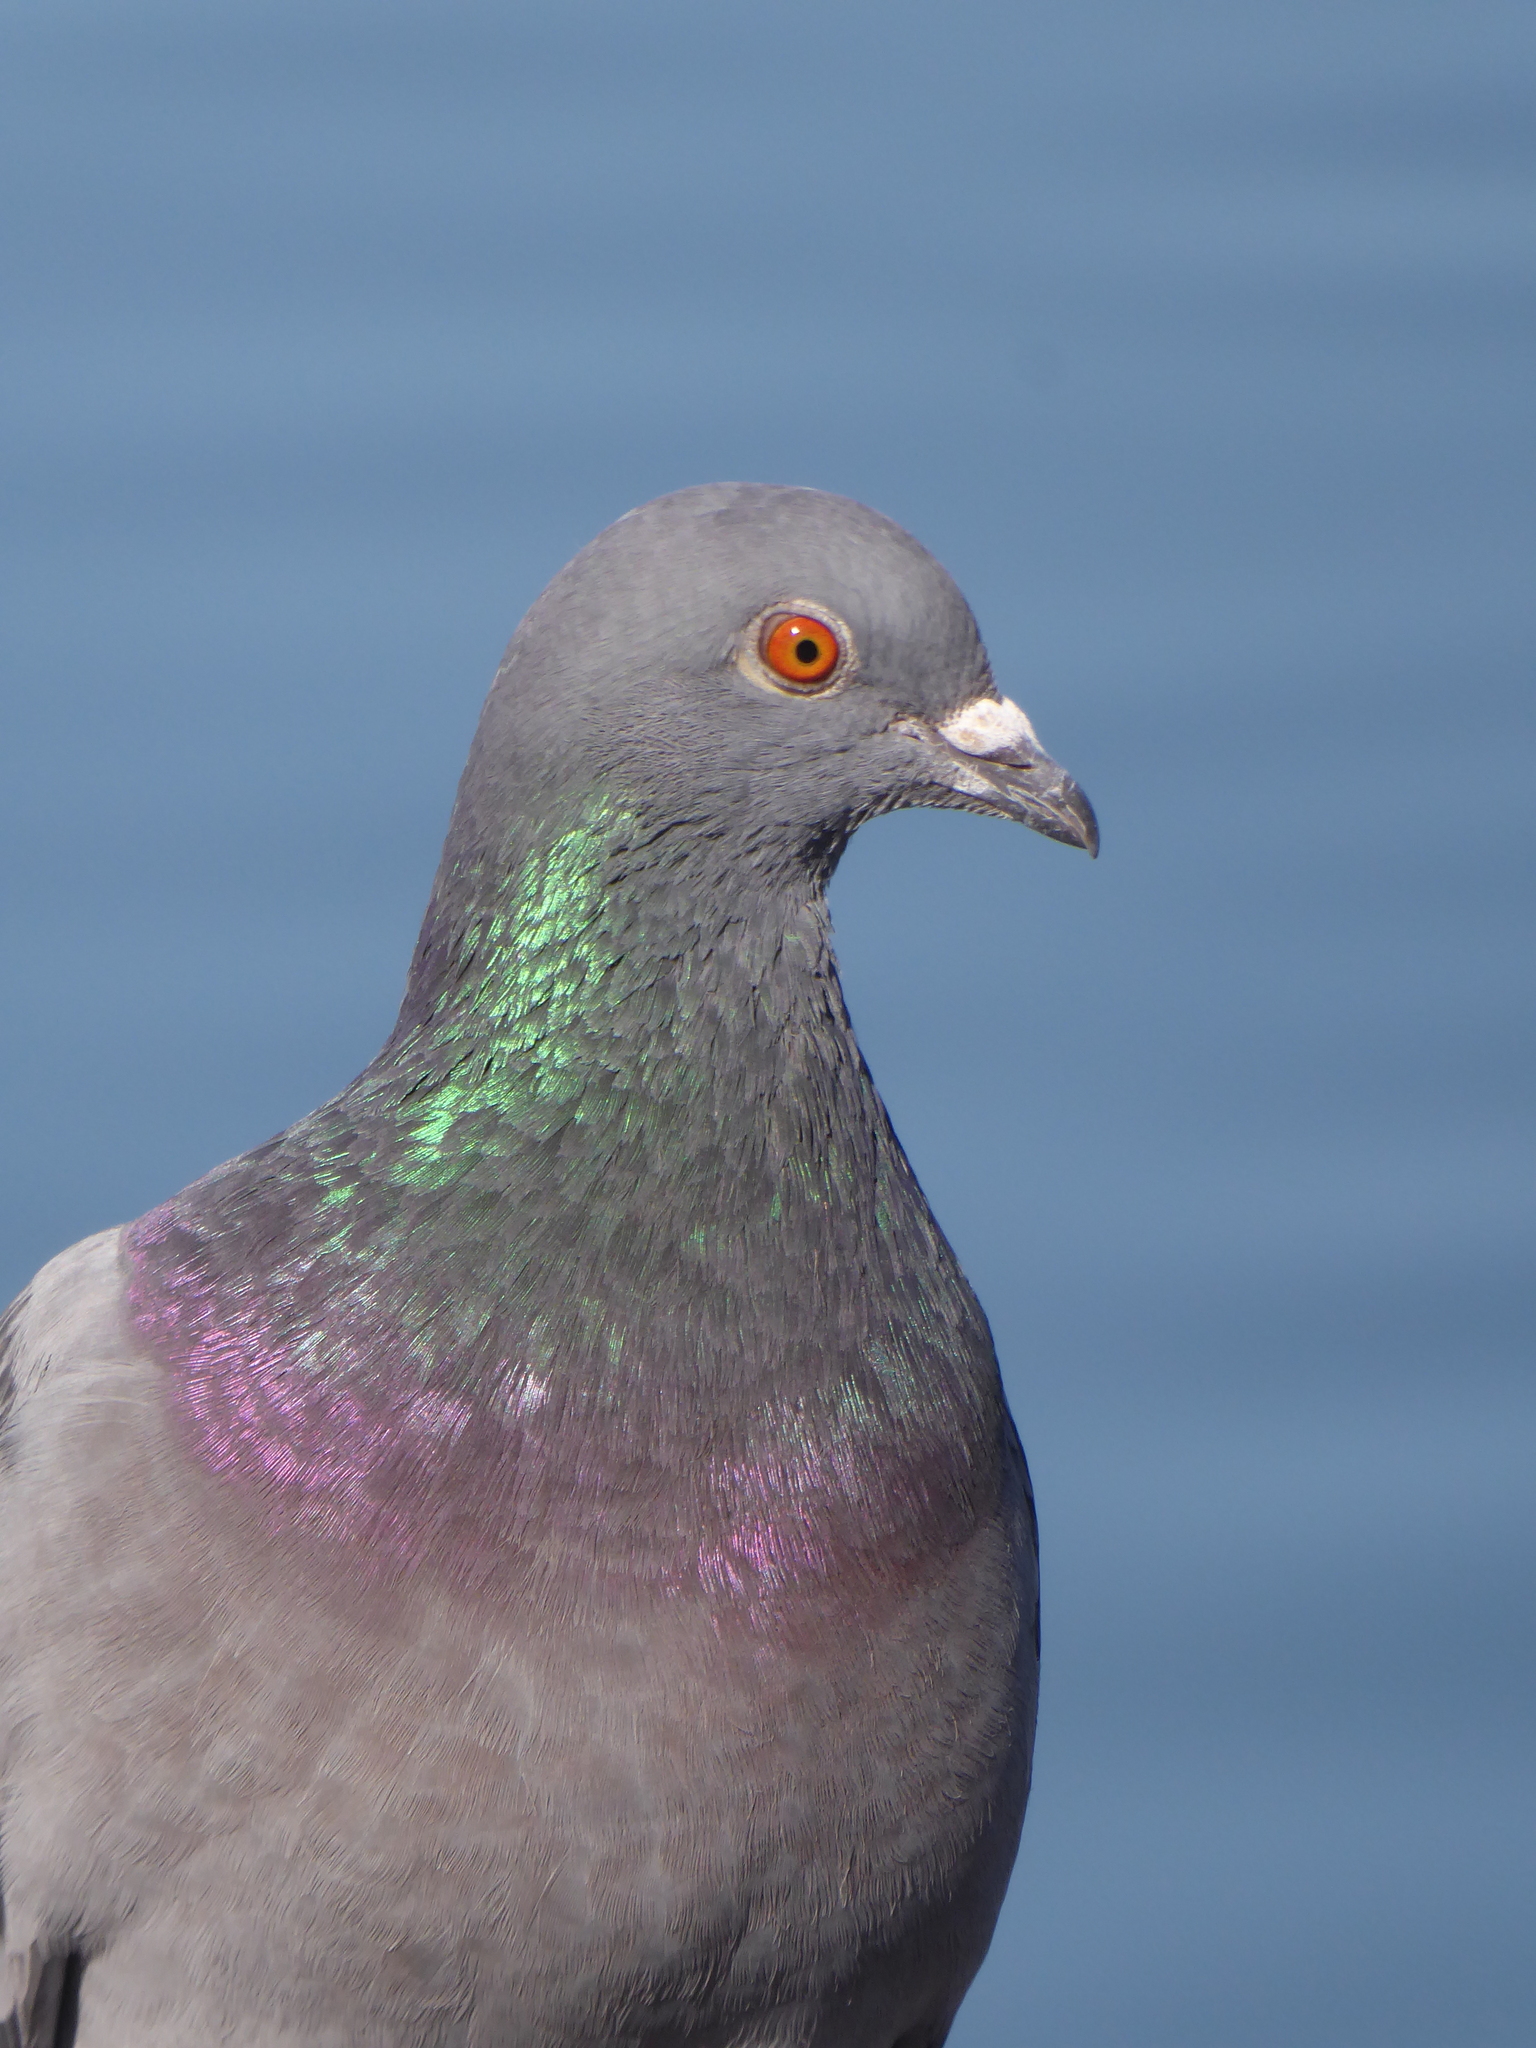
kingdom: Animalia
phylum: Chordata
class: Aves
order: Columbiformes
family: Columbidae
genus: Columba
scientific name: Columba livia
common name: Rock pigeon
